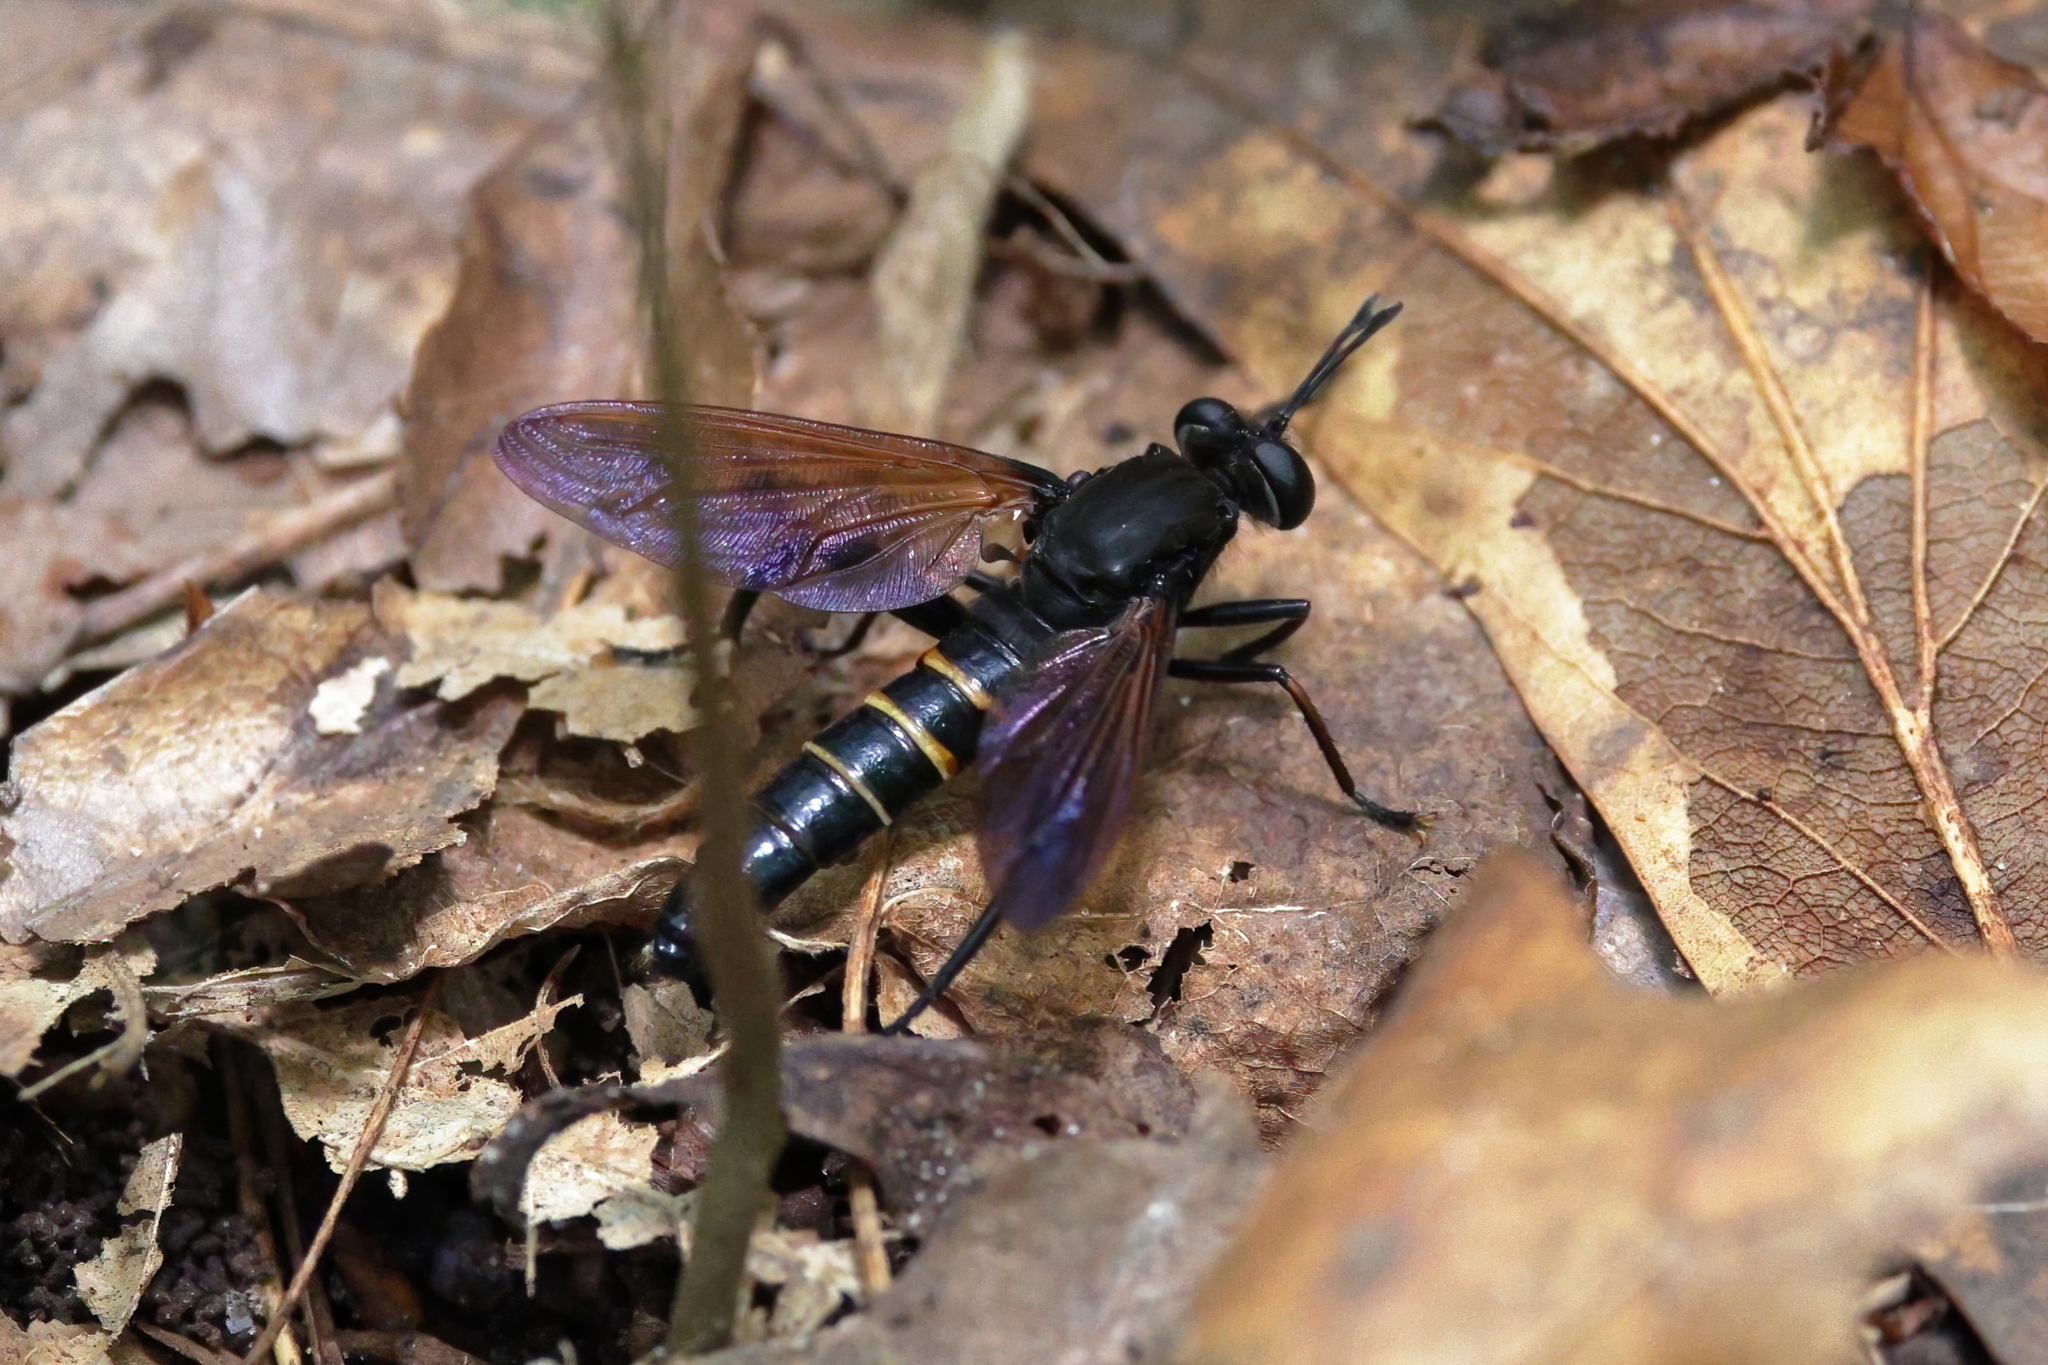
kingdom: Animalia
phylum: Arthropoda
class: Insecta
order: Diptera
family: Mydidae
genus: Mydas
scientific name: Mydas fulvifrons
